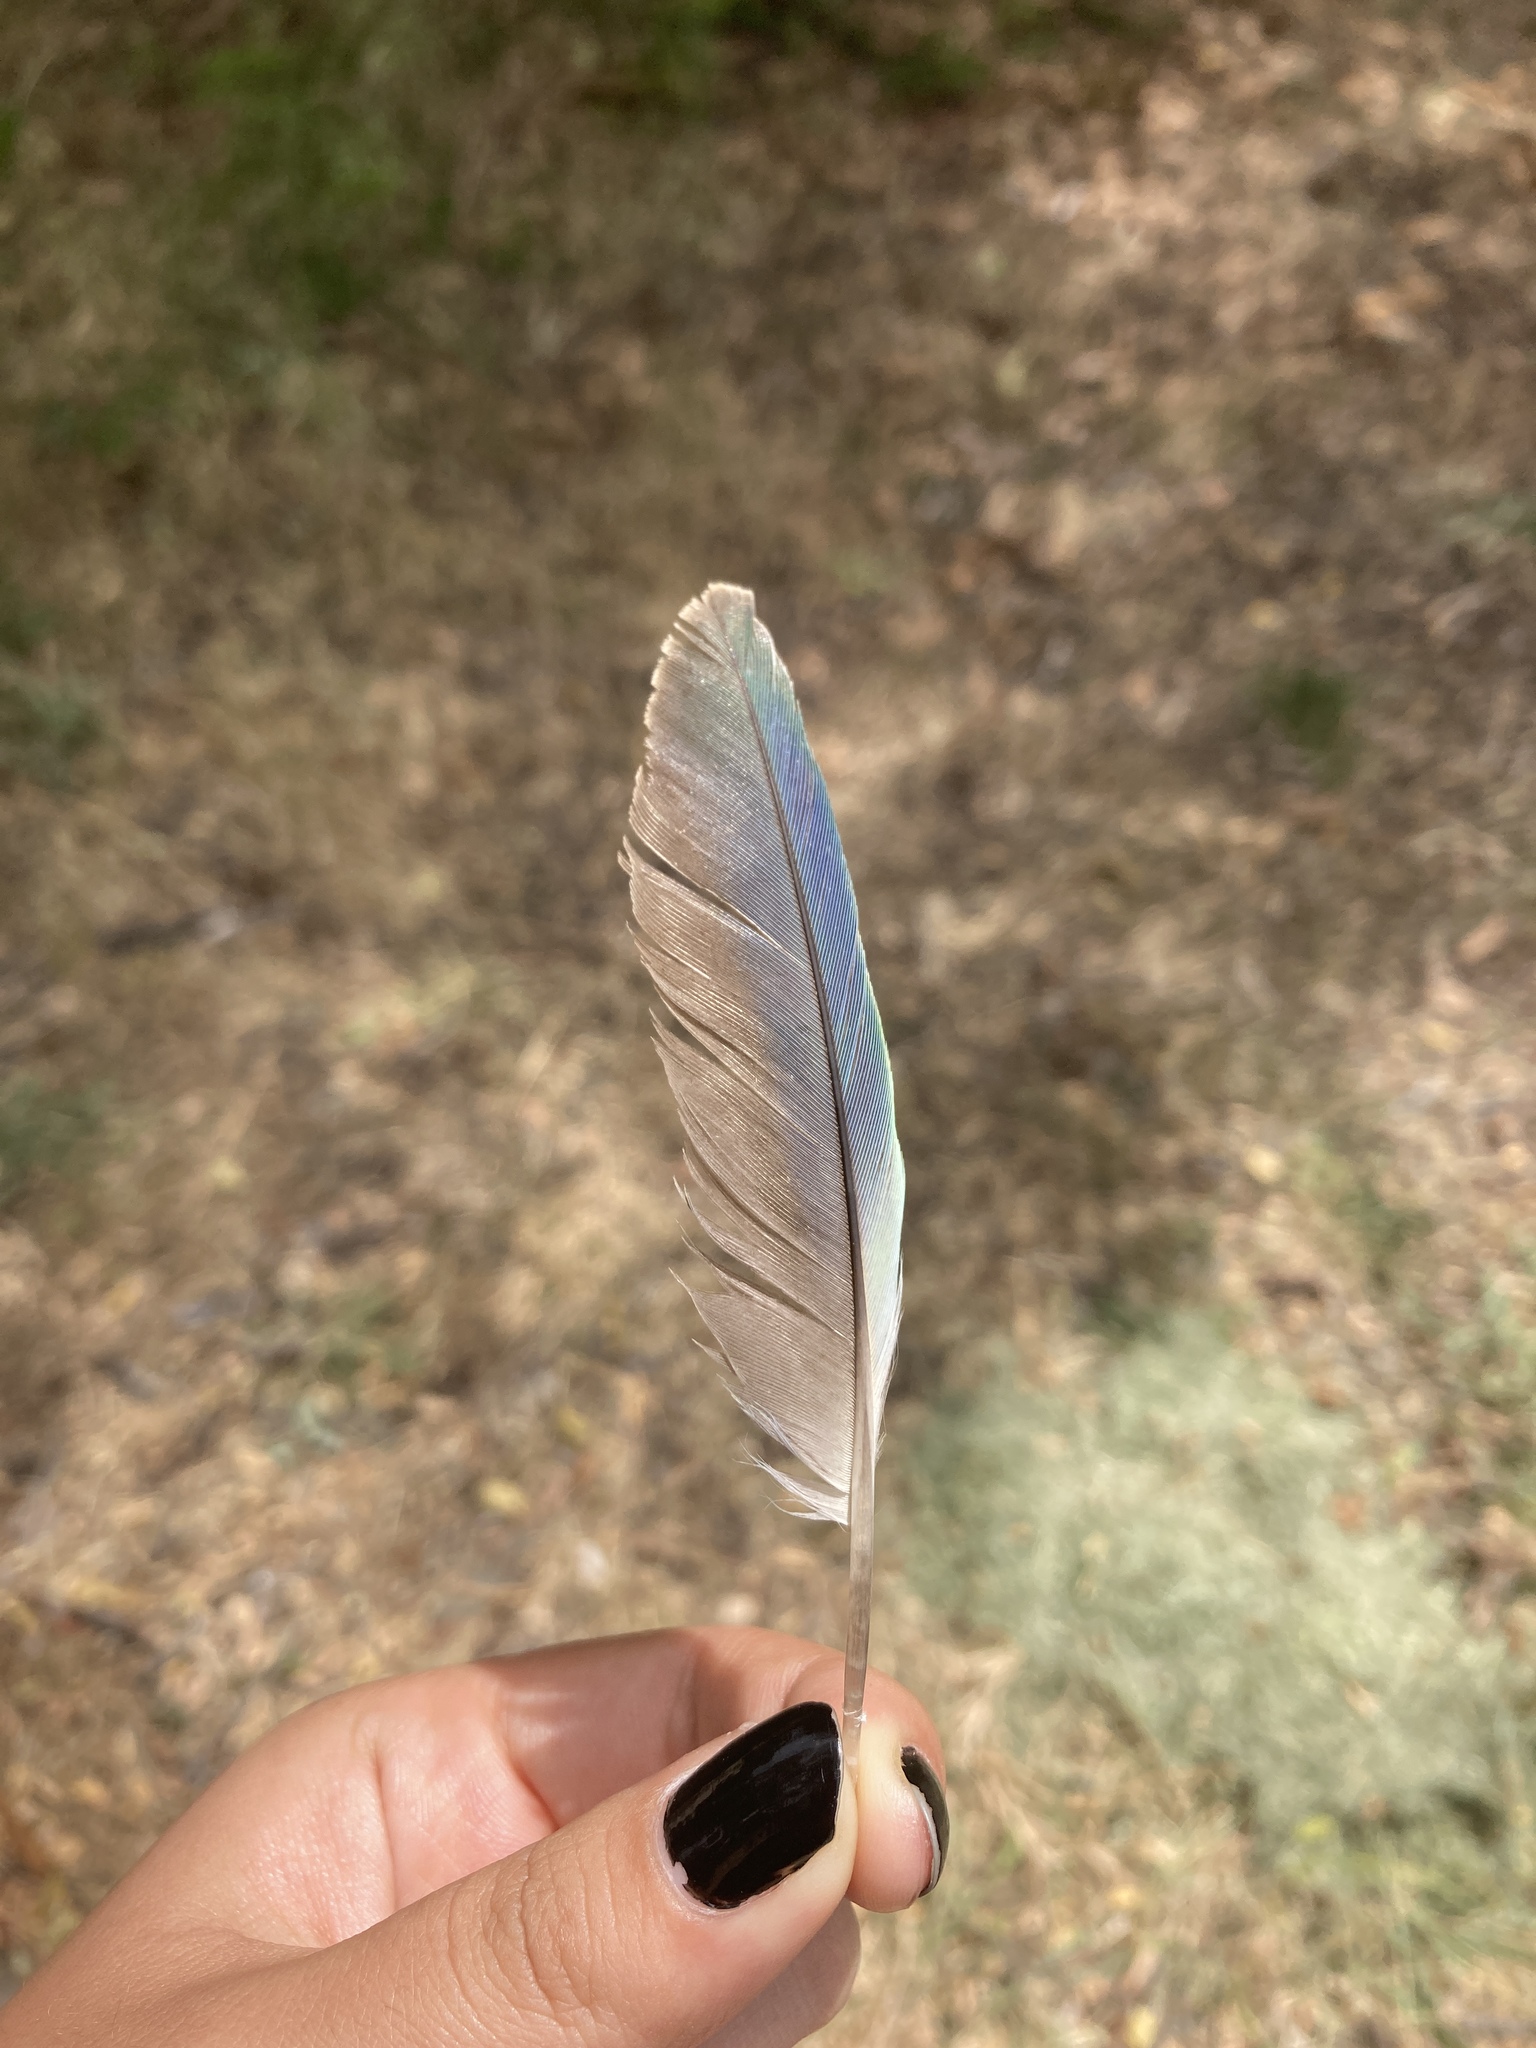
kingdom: Animalia
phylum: Chordata
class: Aves
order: Psittaciformes
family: Psittacidae
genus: Myiopsitta
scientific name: Myiopsitta monachus
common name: Monk parakeet
